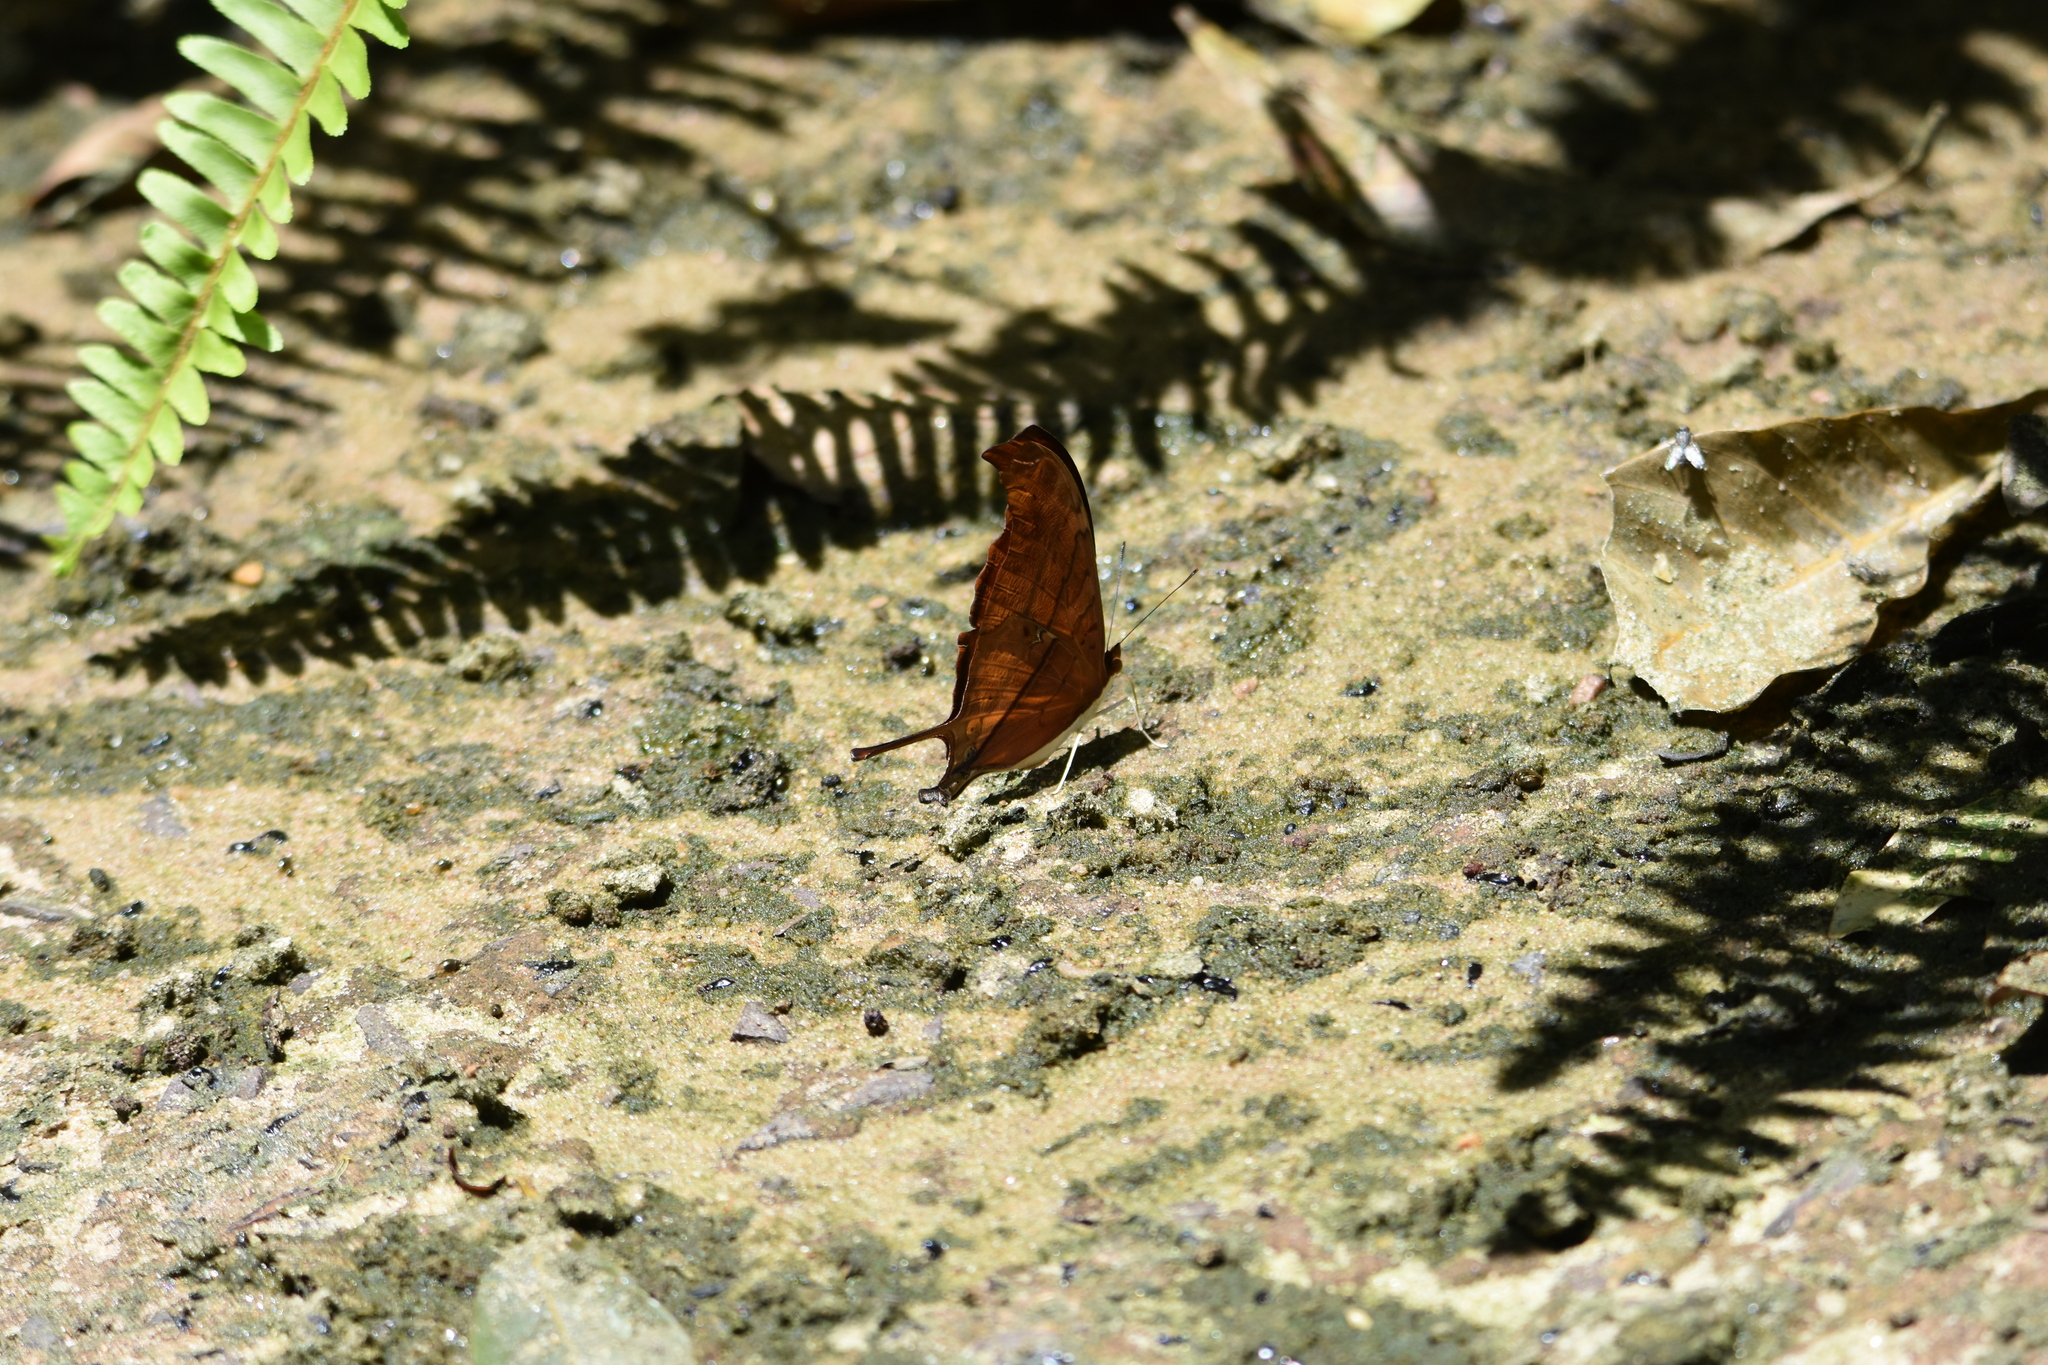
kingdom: Animalia
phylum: Arthropoda
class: Insecta
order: Lepidoptera
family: Nymphalidae
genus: Marpesia
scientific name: Marpesia petreus
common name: Red dagger wing
